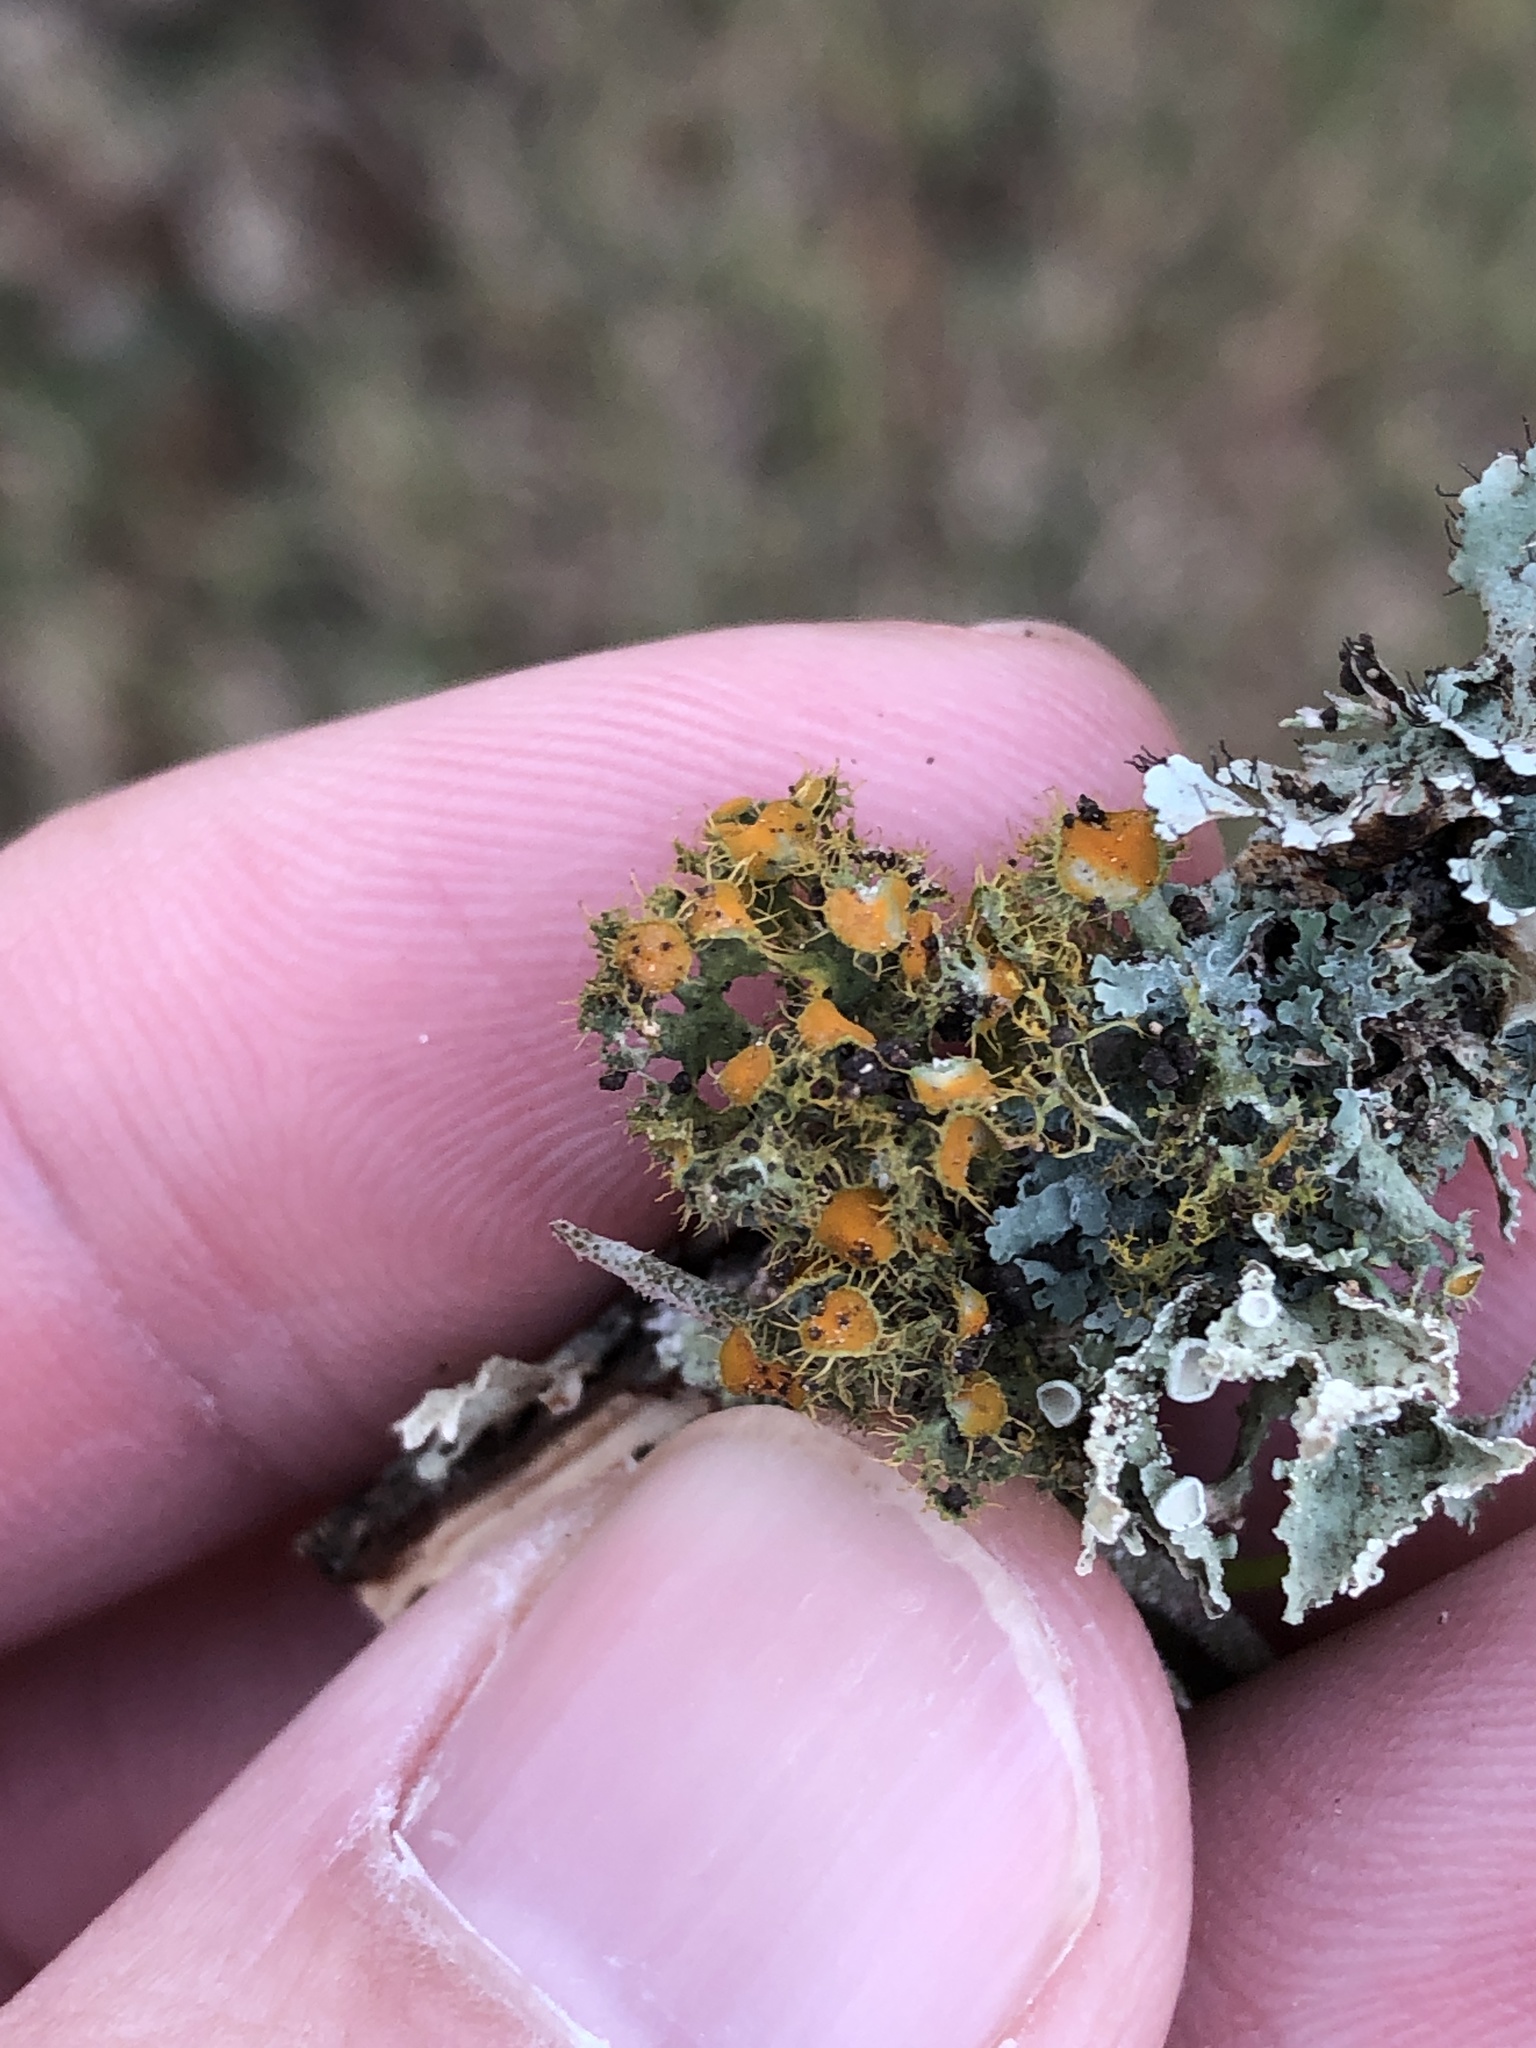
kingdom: Fungi
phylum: Ascomycota
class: Lecanoromycetes
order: Teloschistales
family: Teloschistaceae
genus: Niorma
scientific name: Niorma chrysophthalma
